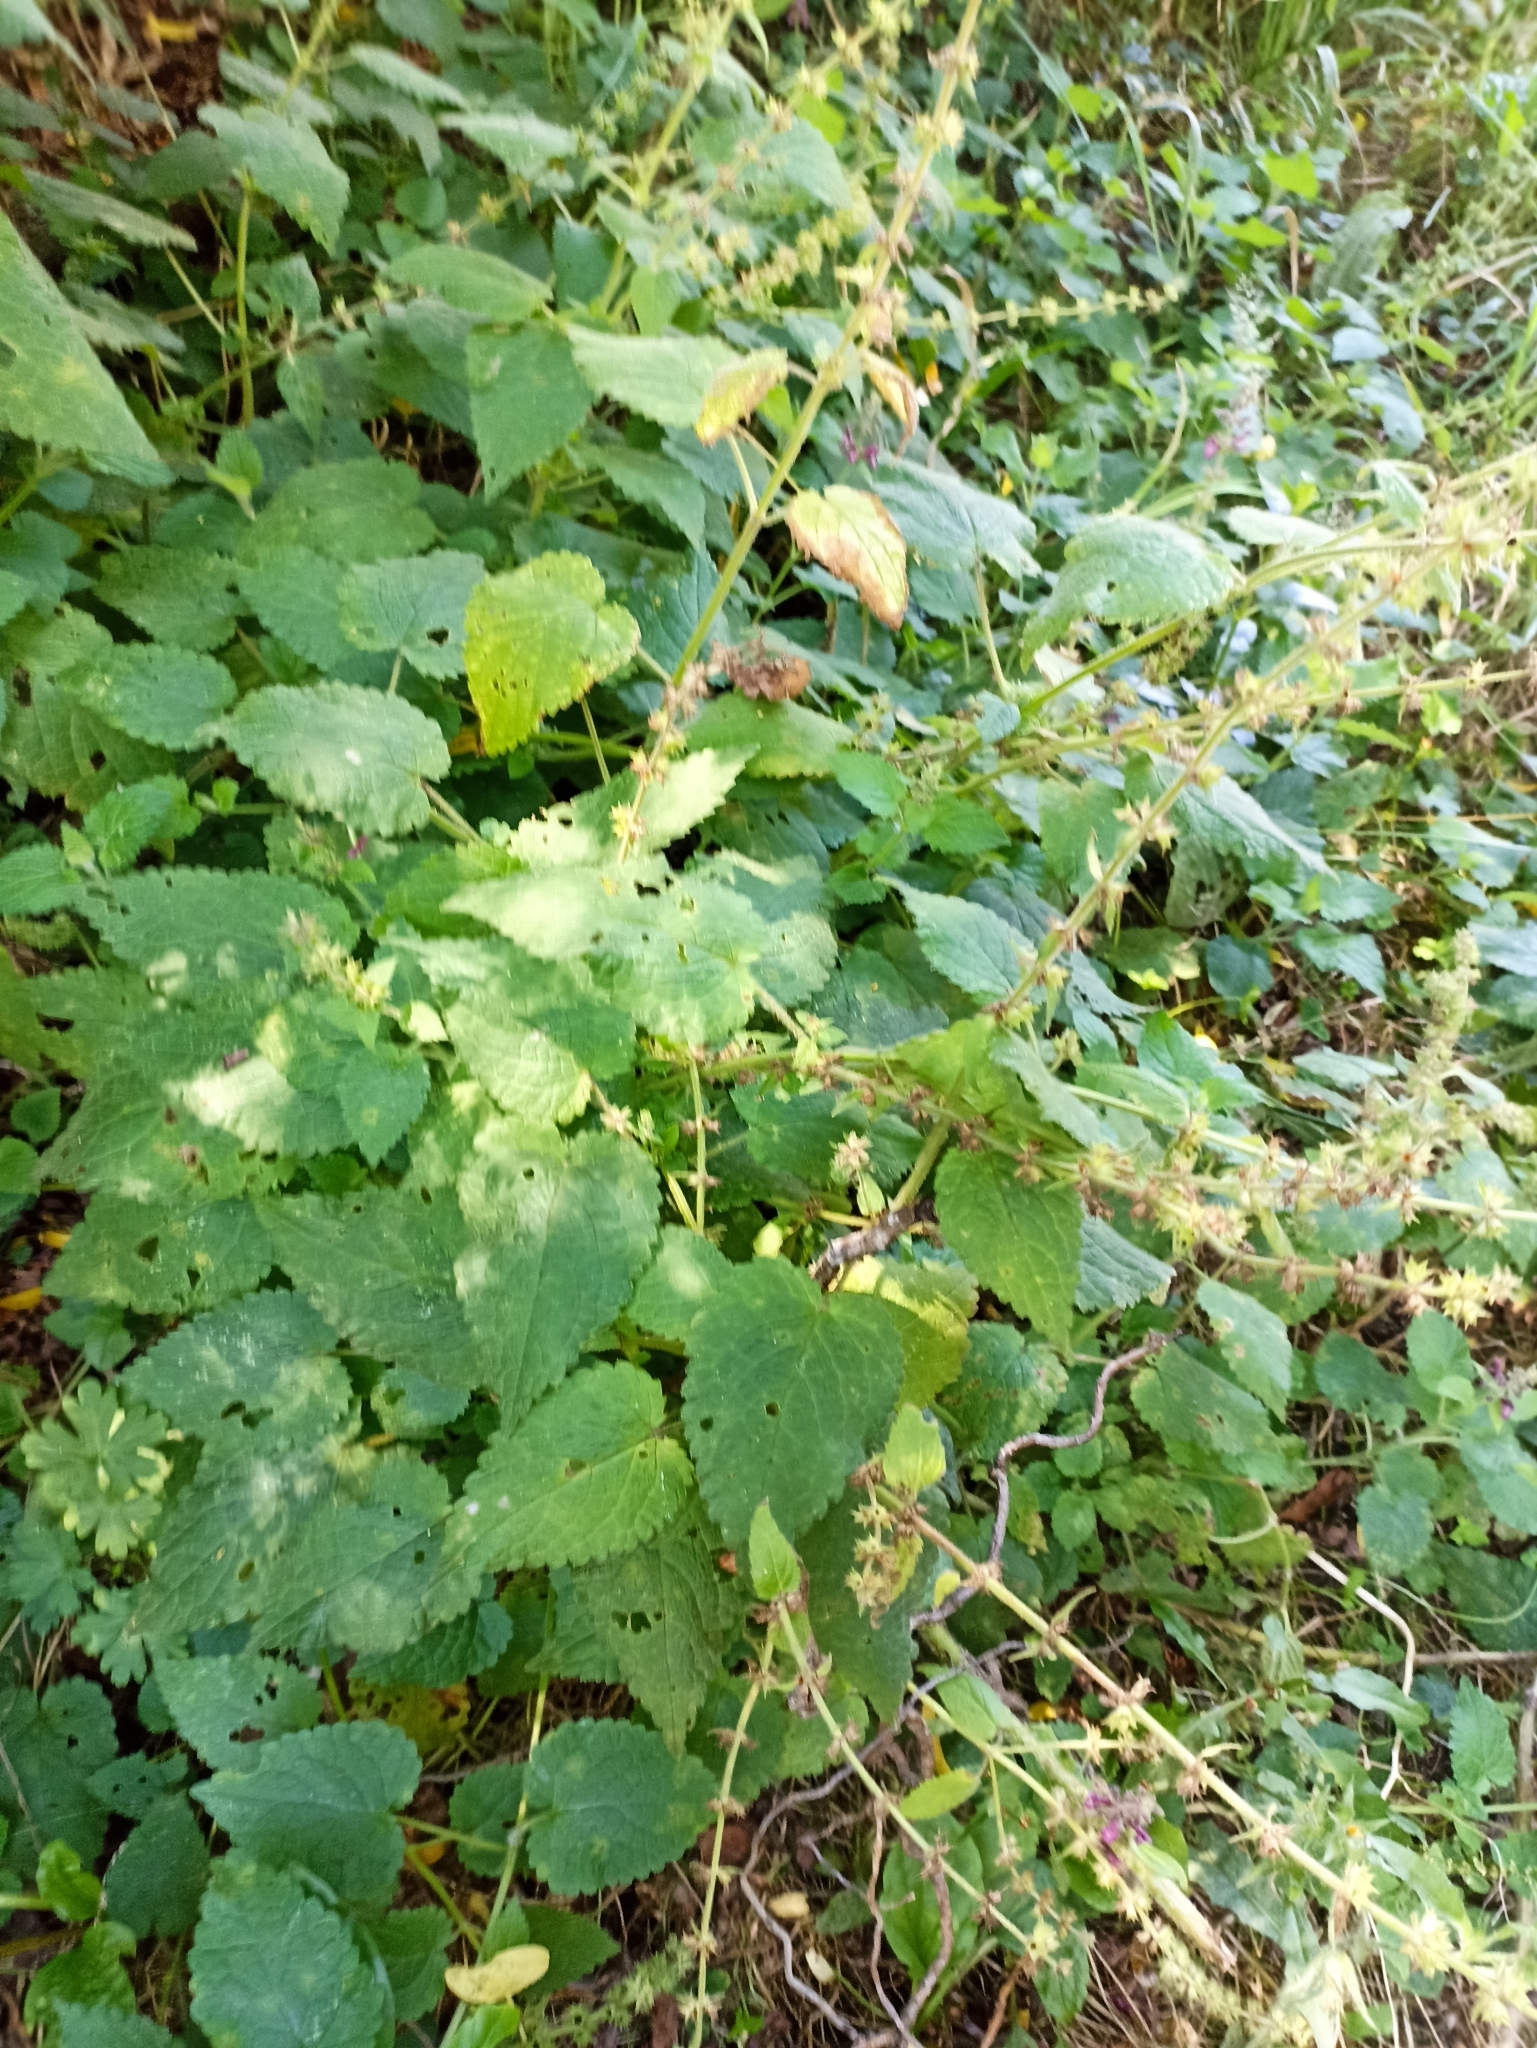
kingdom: Plantae
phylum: Tracheophyta
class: Magnoliopsida
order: Lamiales
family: Lamiaceae
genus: Stachys
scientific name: Stachys sylvatica
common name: Hedge woundwort
